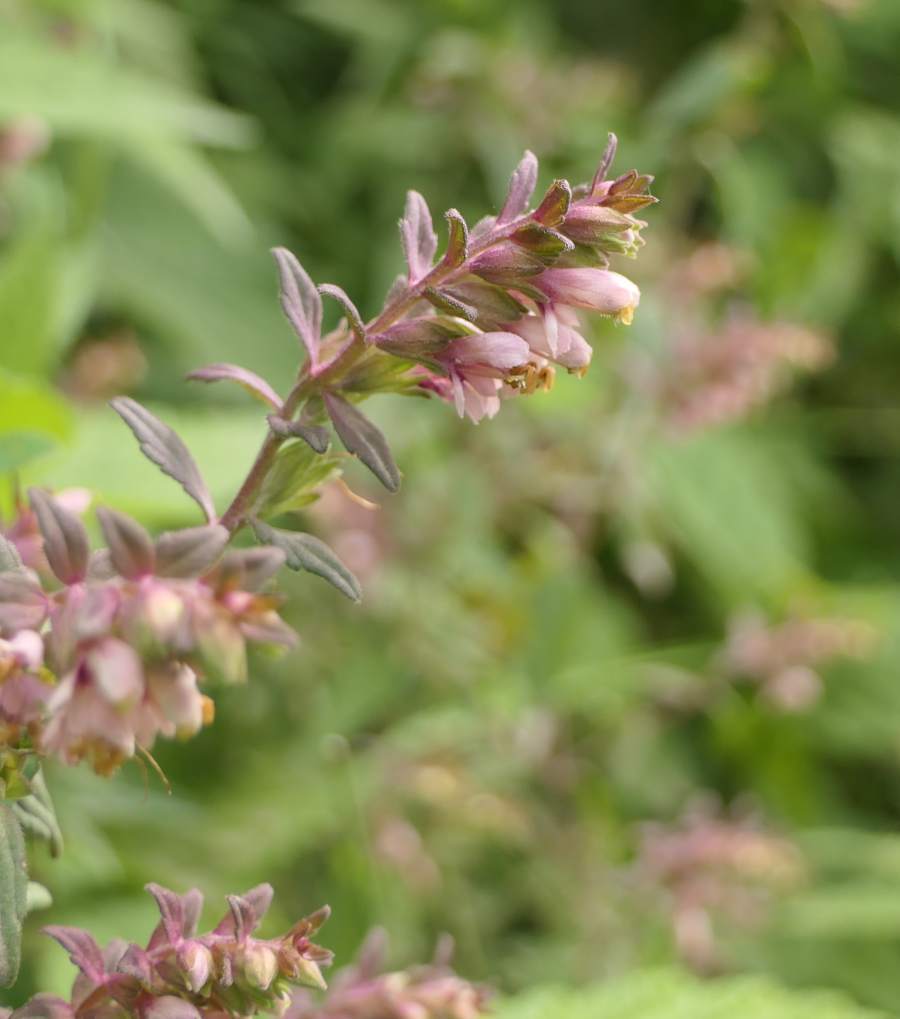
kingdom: Plantae
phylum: Tracheophyta
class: Magnoliopsida
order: Lamiales
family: Orobanchaceae
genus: Odontites
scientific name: Odontites vulgaris
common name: Broomrape
